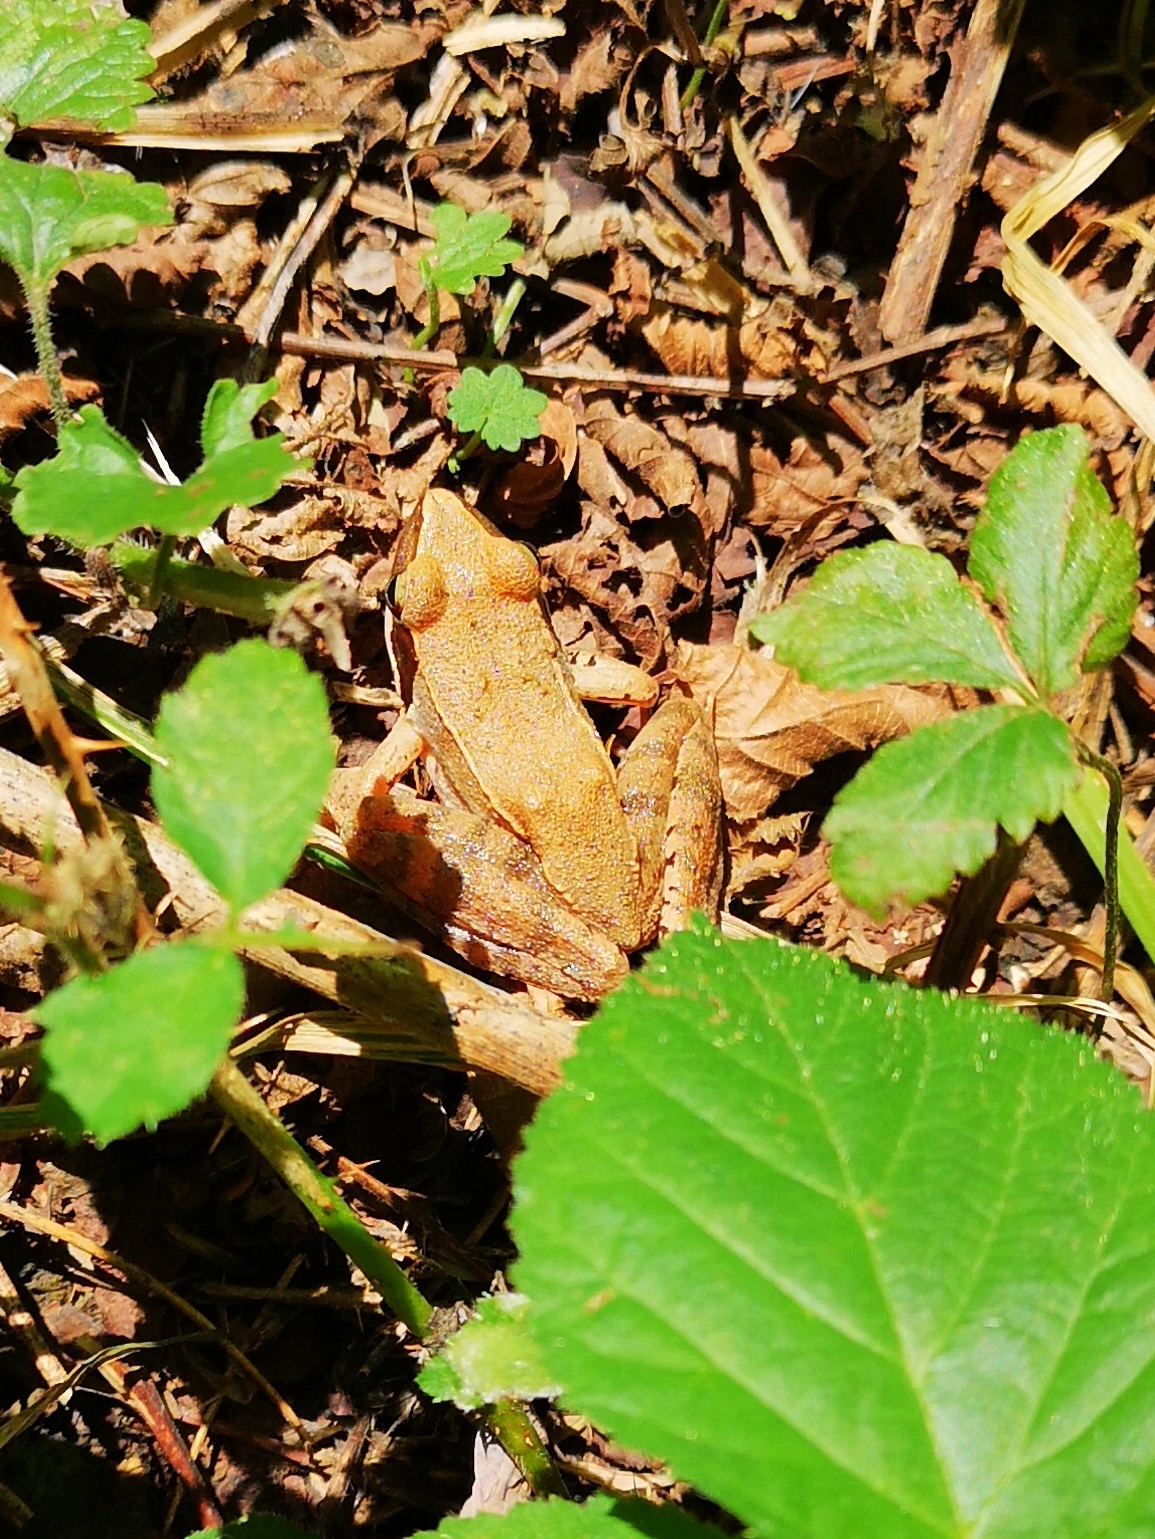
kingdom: Animalia
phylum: Chordata
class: Amphibia
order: Anura
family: Ranidae
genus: Rana
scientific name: Rana latastei
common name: Italian agile frog
